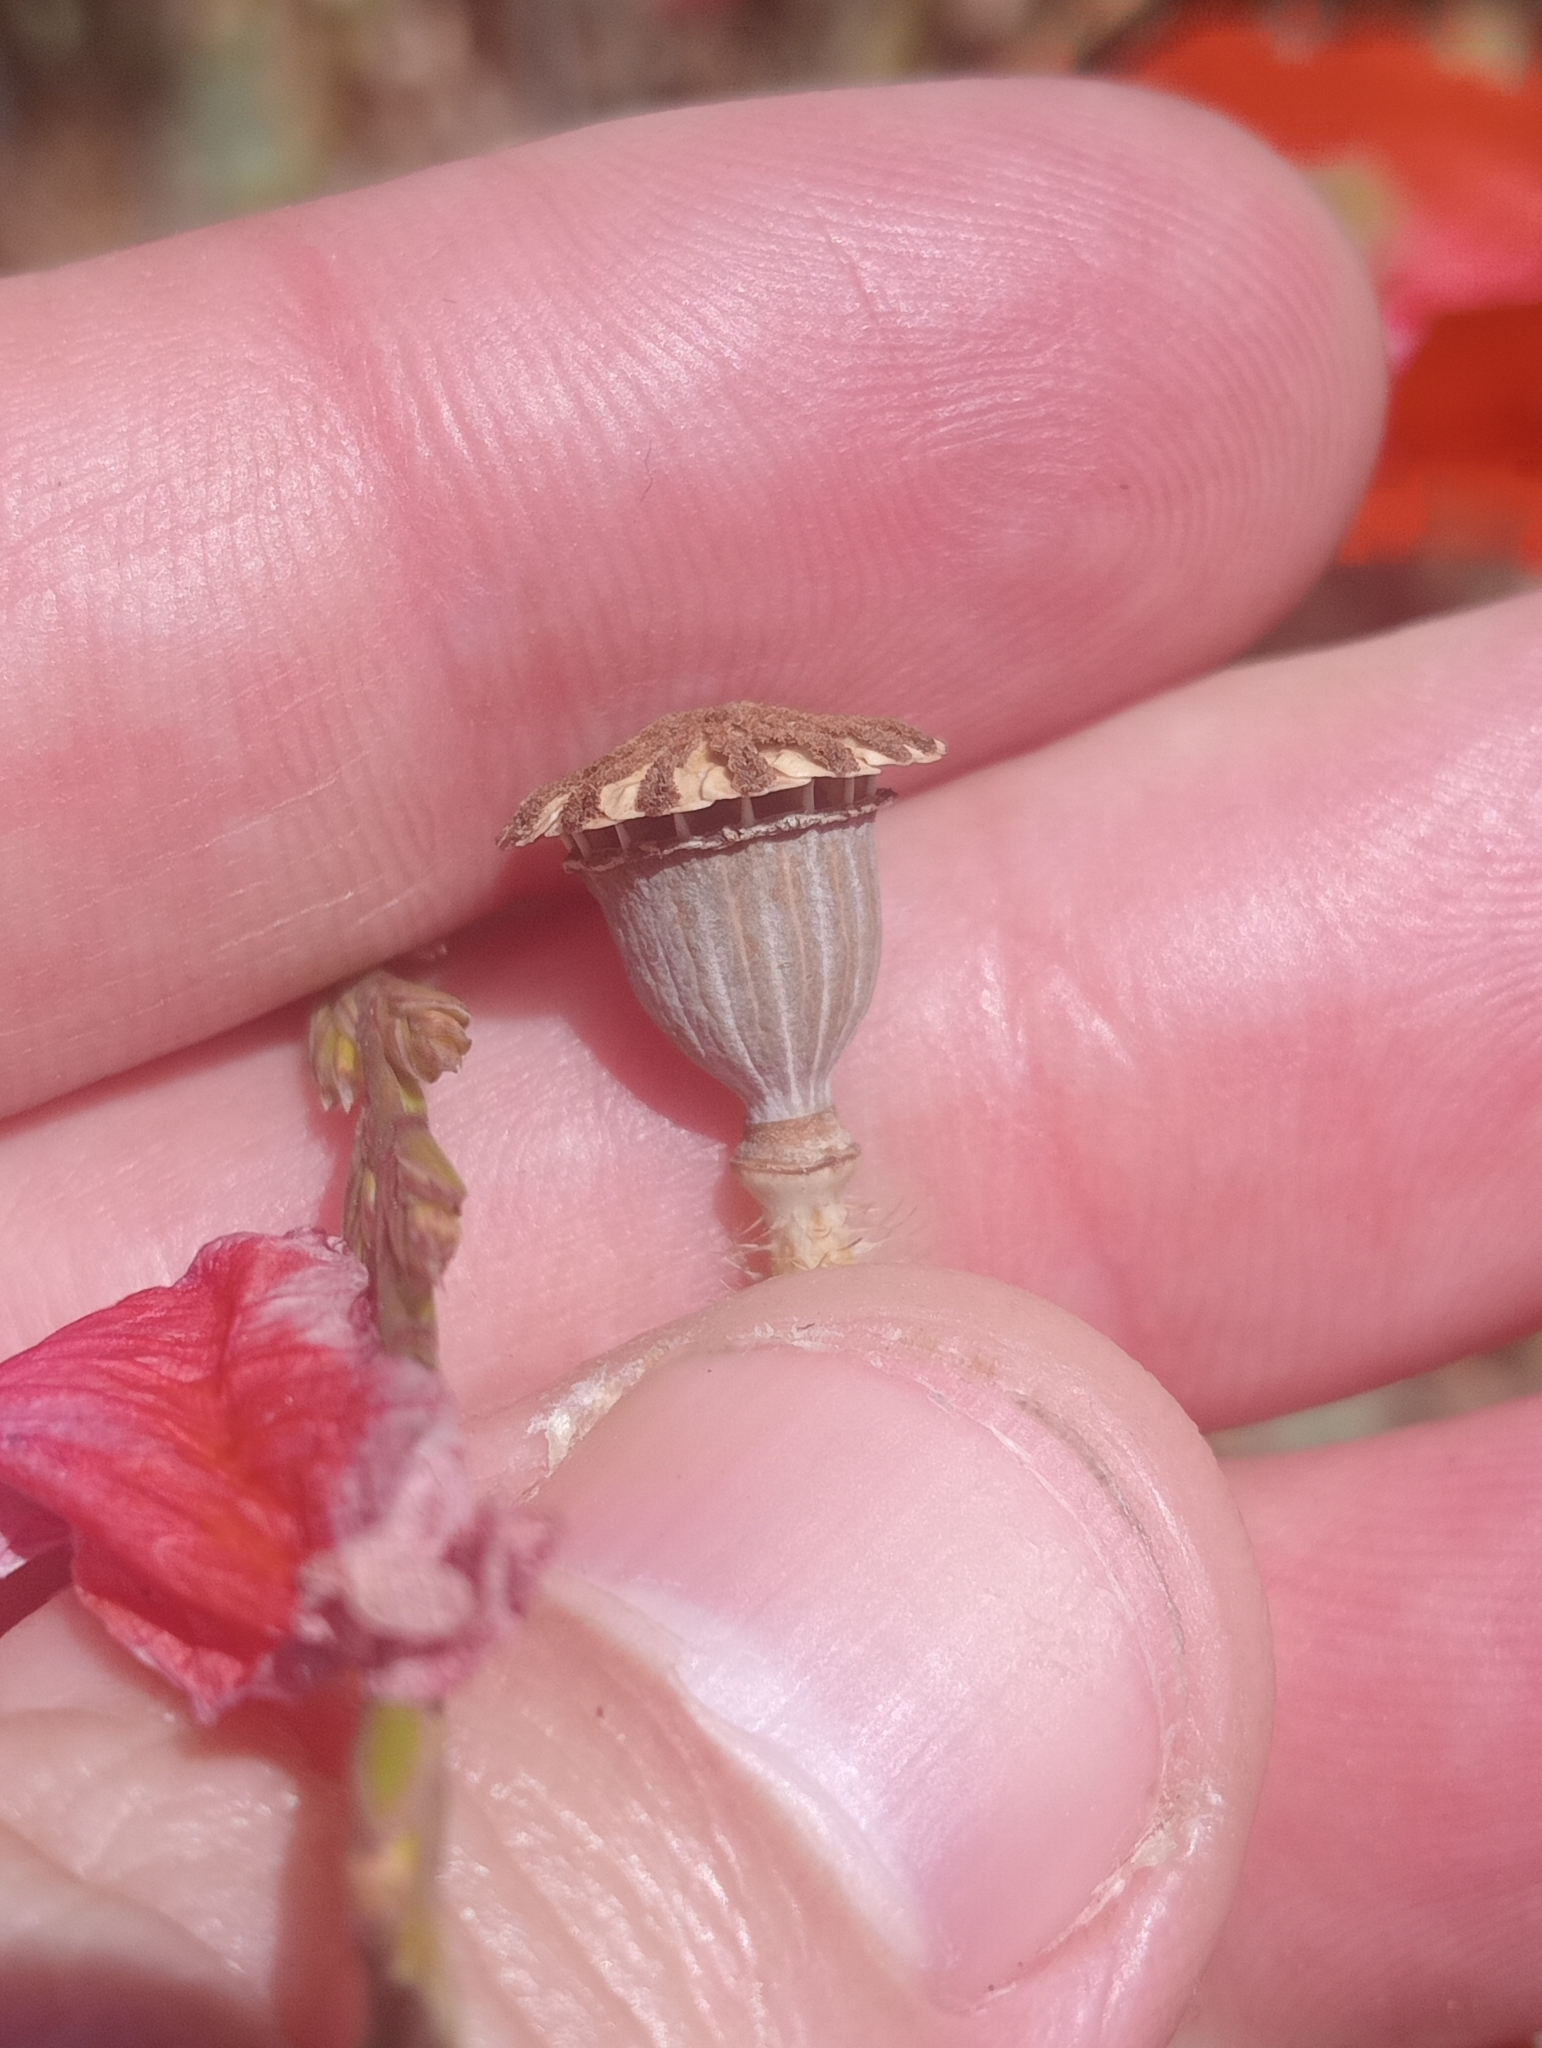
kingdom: Plantae
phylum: Tracheophyta
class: Magnoliopsida
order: Ranunculales
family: Papaveraceae
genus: Papaver
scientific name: Papaver rhoeas
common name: Corn poppy
